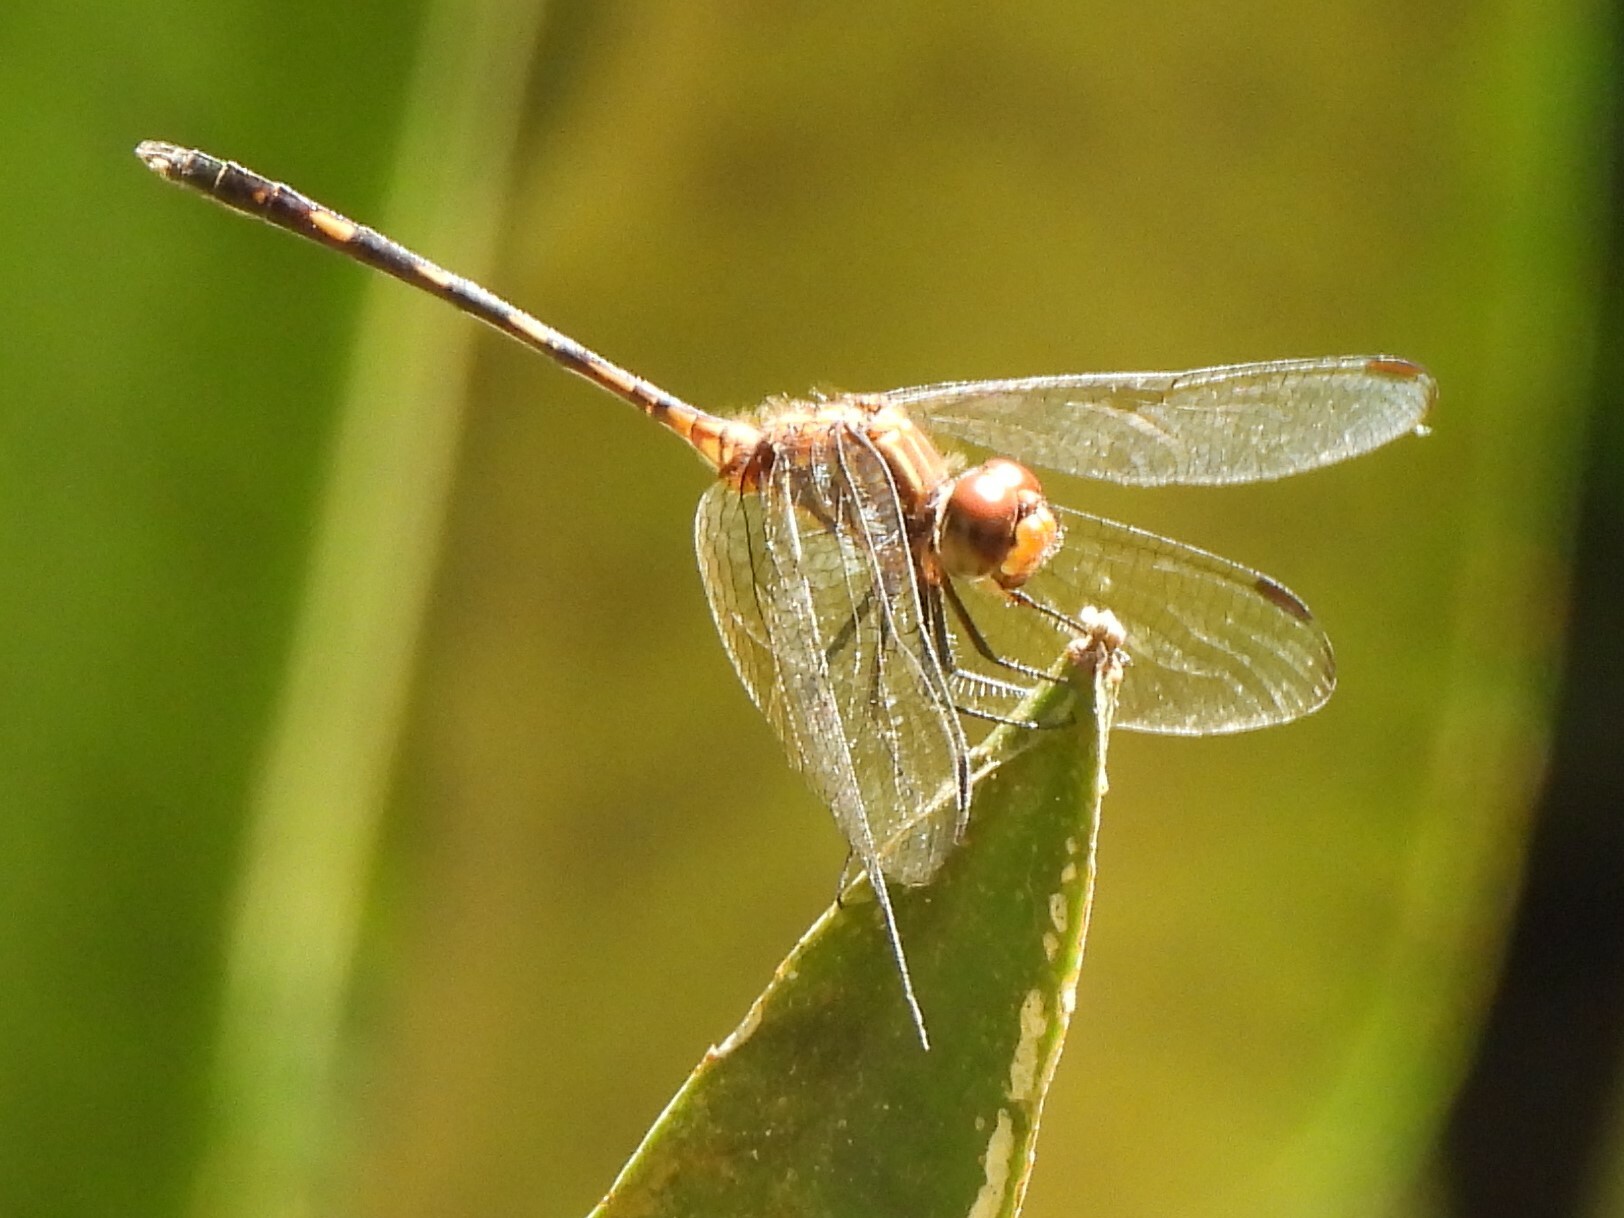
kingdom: Animalia
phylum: Arthropoda
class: Insecta
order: Odonata
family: Libellulidae
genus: Dythemis
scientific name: Dythemis sterilis
